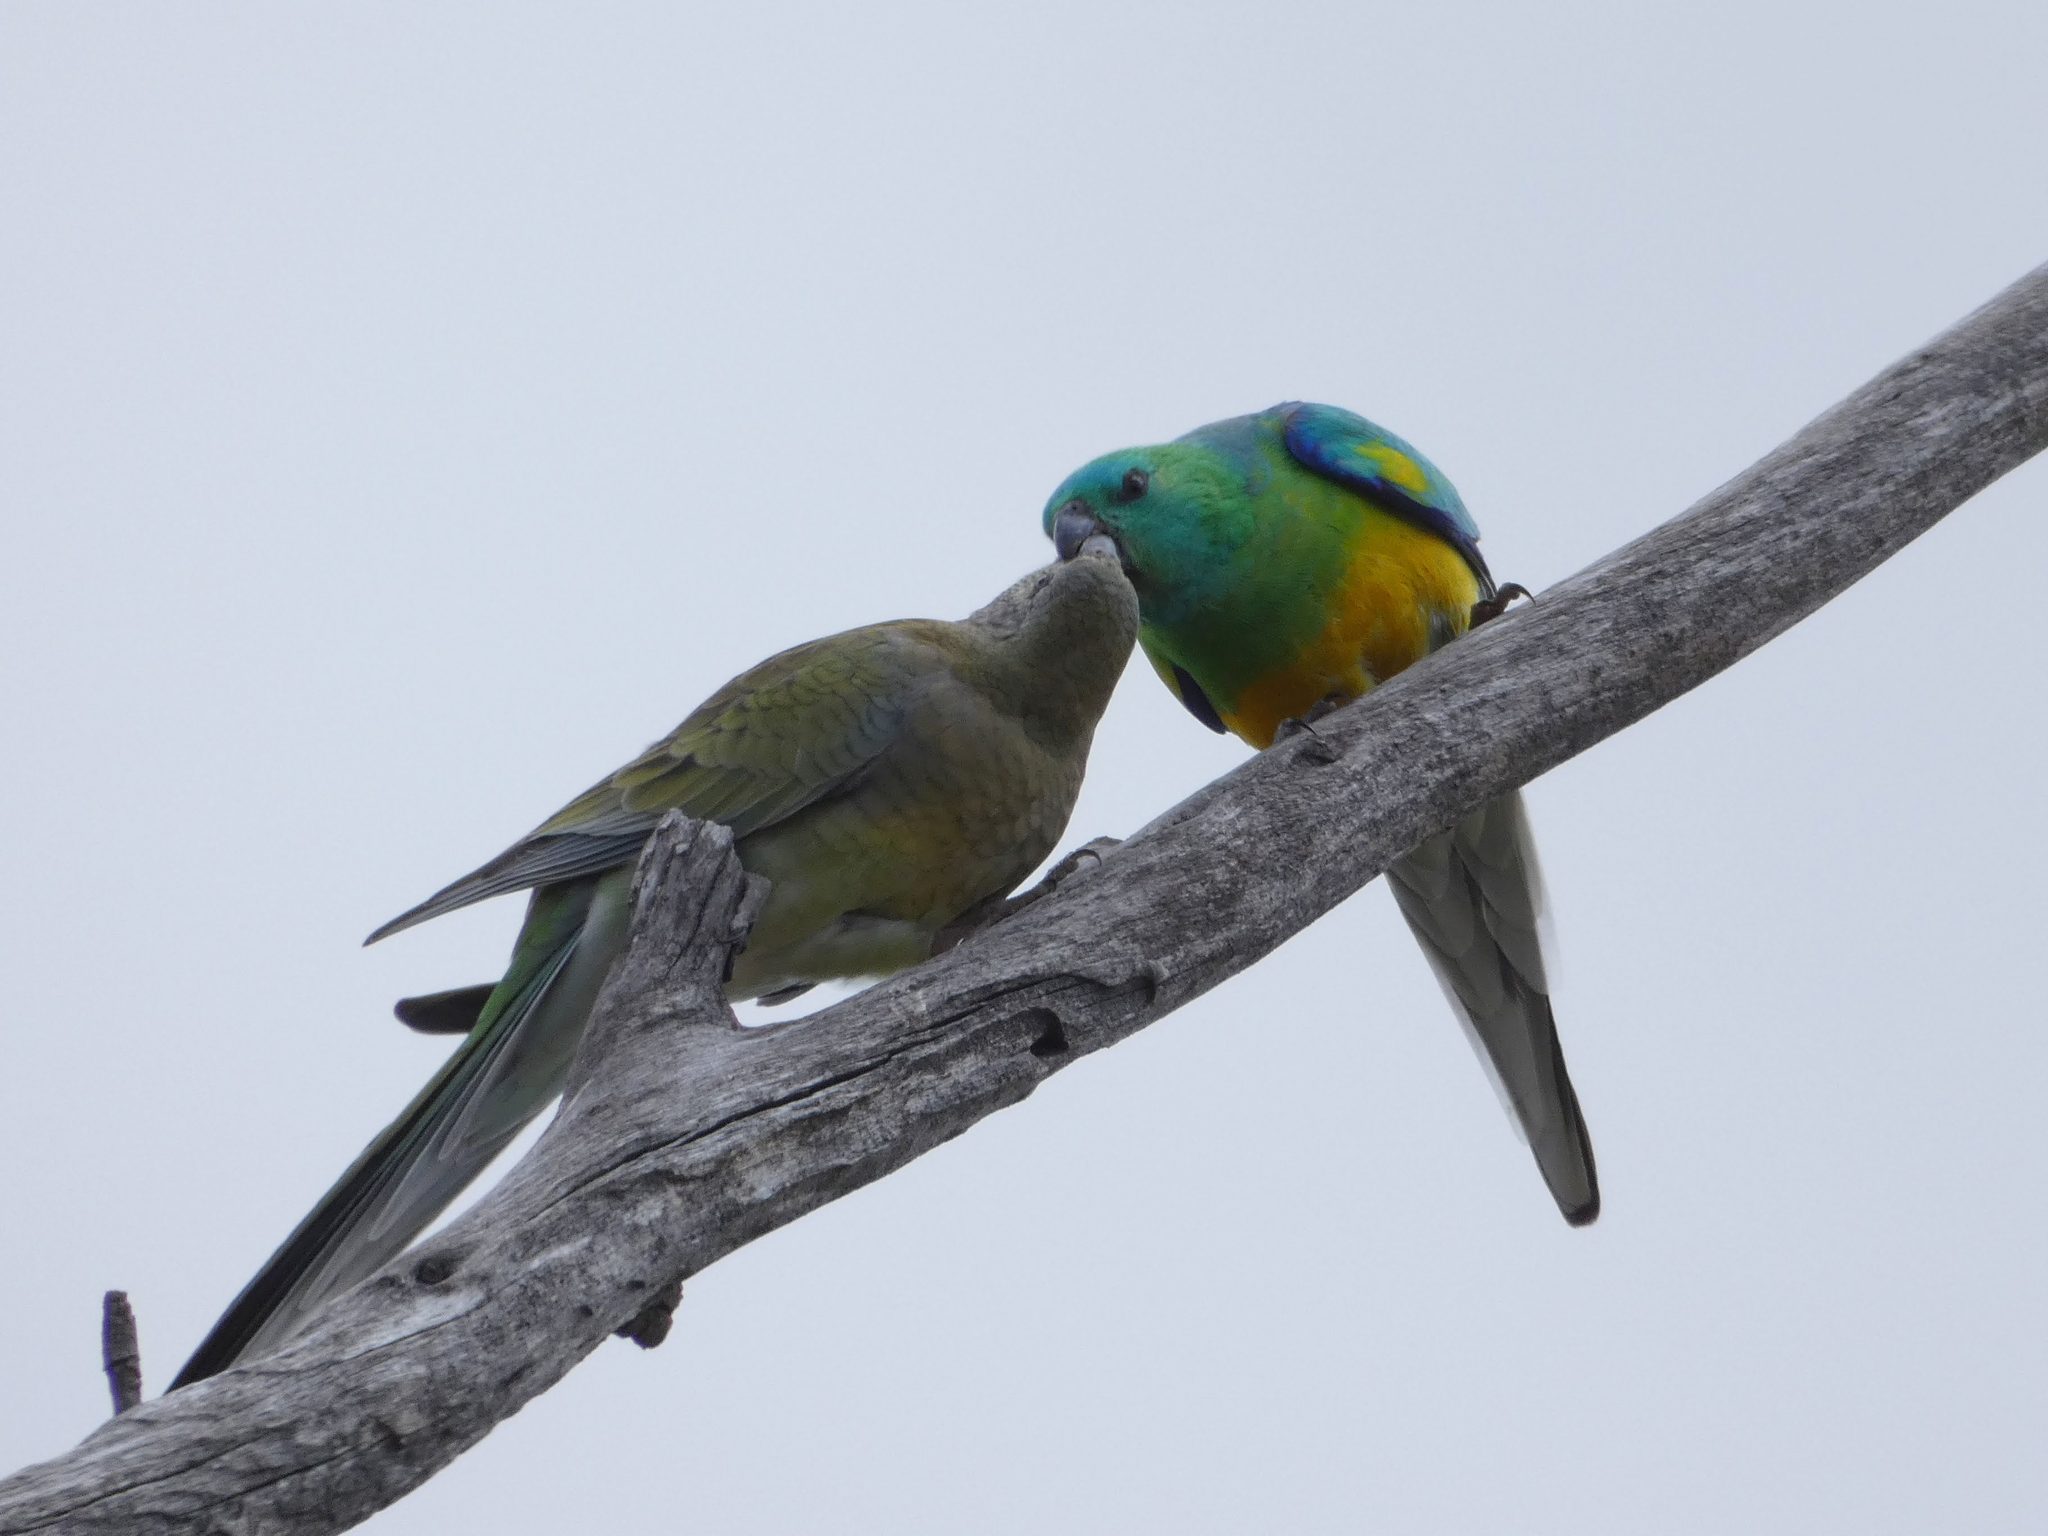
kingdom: Animalia
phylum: Chordata
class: Aves
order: Psittaciformes
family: Psittacidae
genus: Psephotus
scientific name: Psephotus haematonotus
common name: Red-rumped parrot
